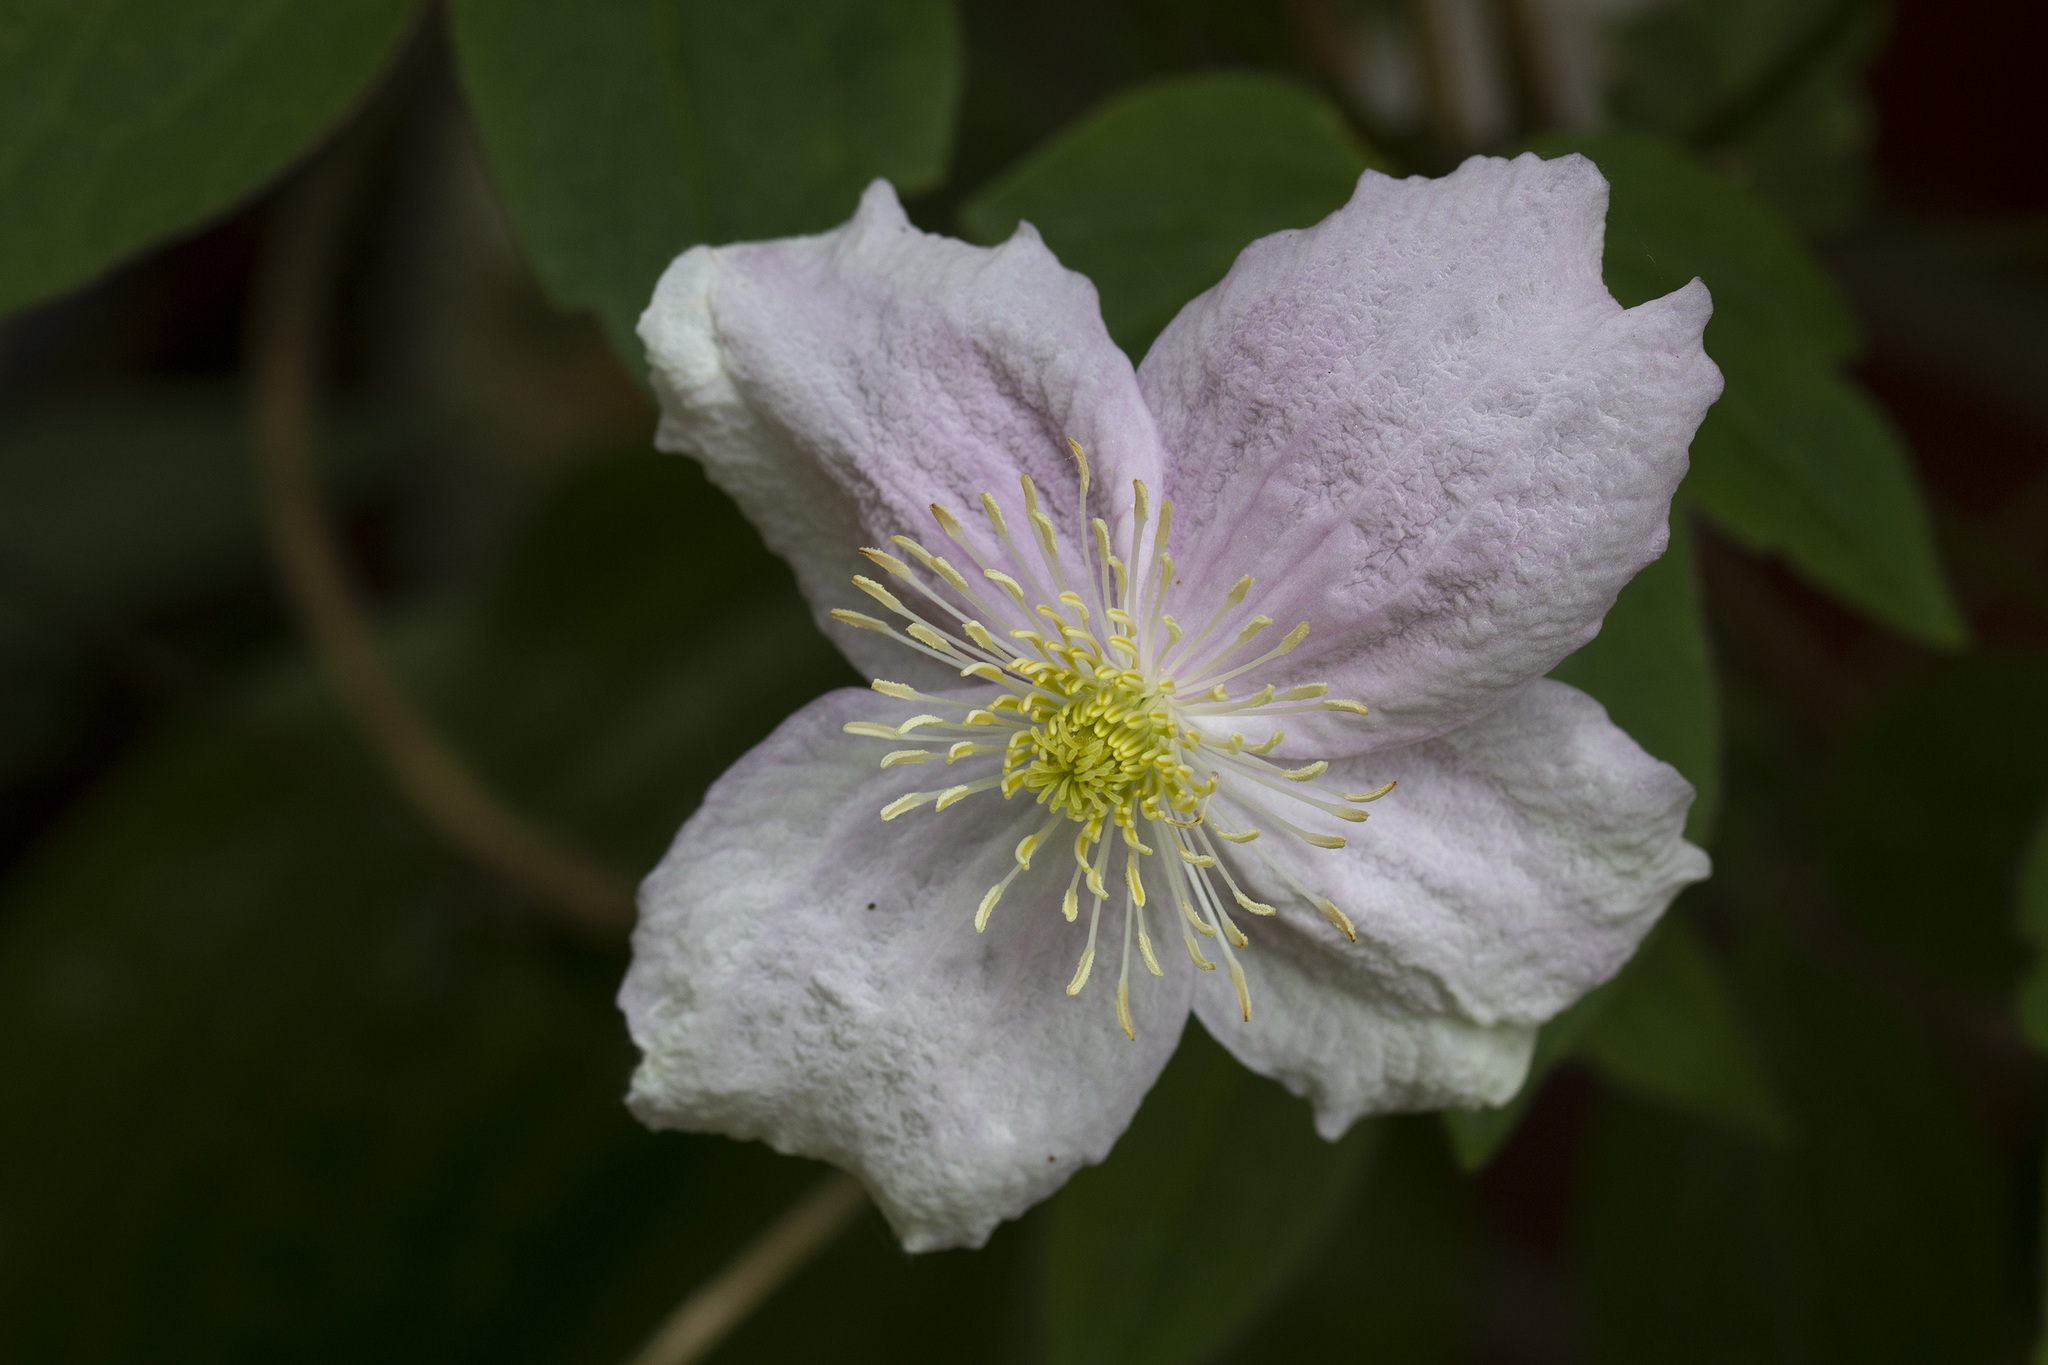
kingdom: Plantae
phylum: Tracheophyta
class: Magnoliopsida
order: Ranunculales
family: Ranunculaceae
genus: Clematis
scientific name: Clematis montana
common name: Himalayan clematis
